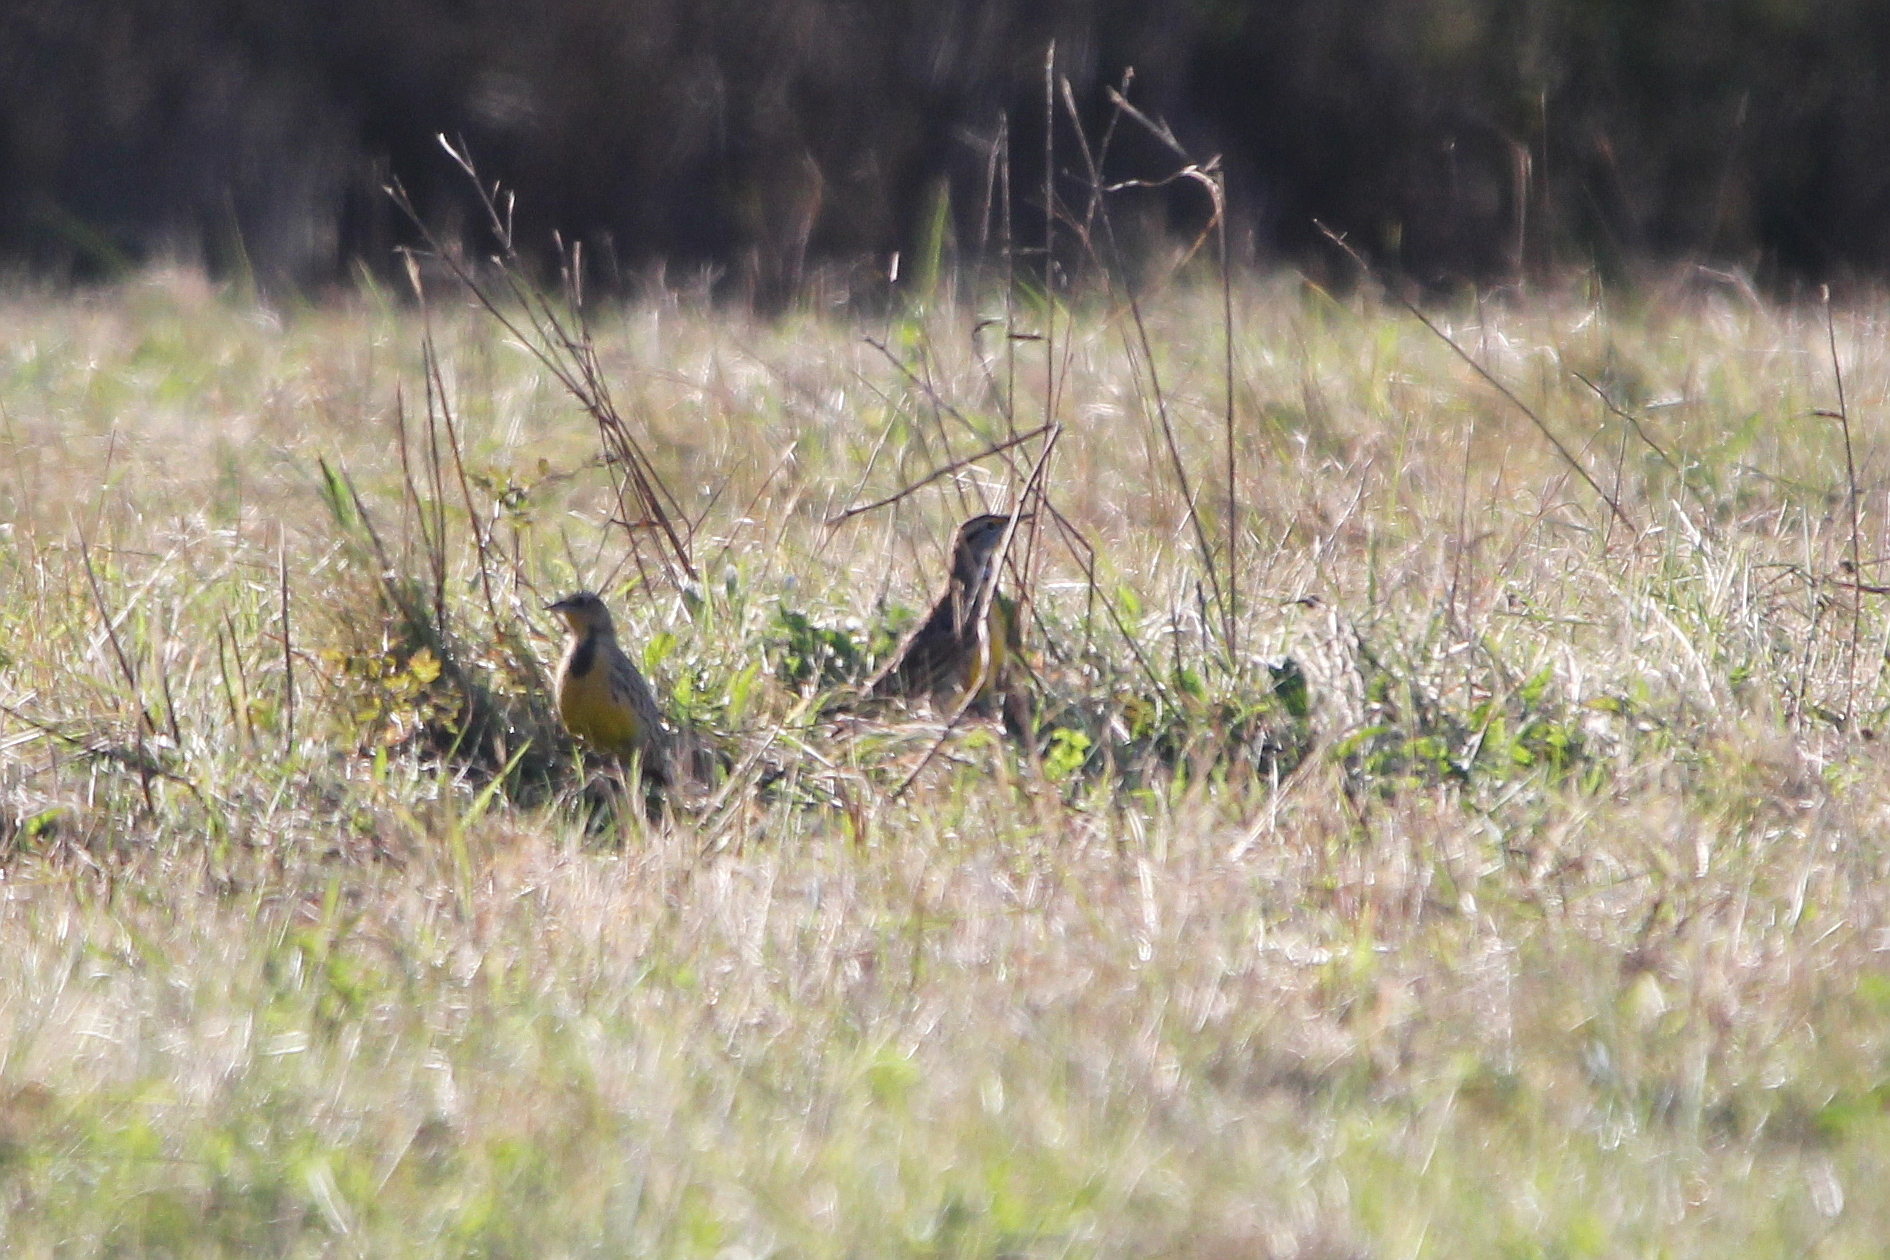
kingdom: Animalia
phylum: Chordata
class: Aves
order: Passeriformes
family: Icteridae
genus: Sturnella
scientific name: Sturnella magna
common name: Eastern meadowlark
